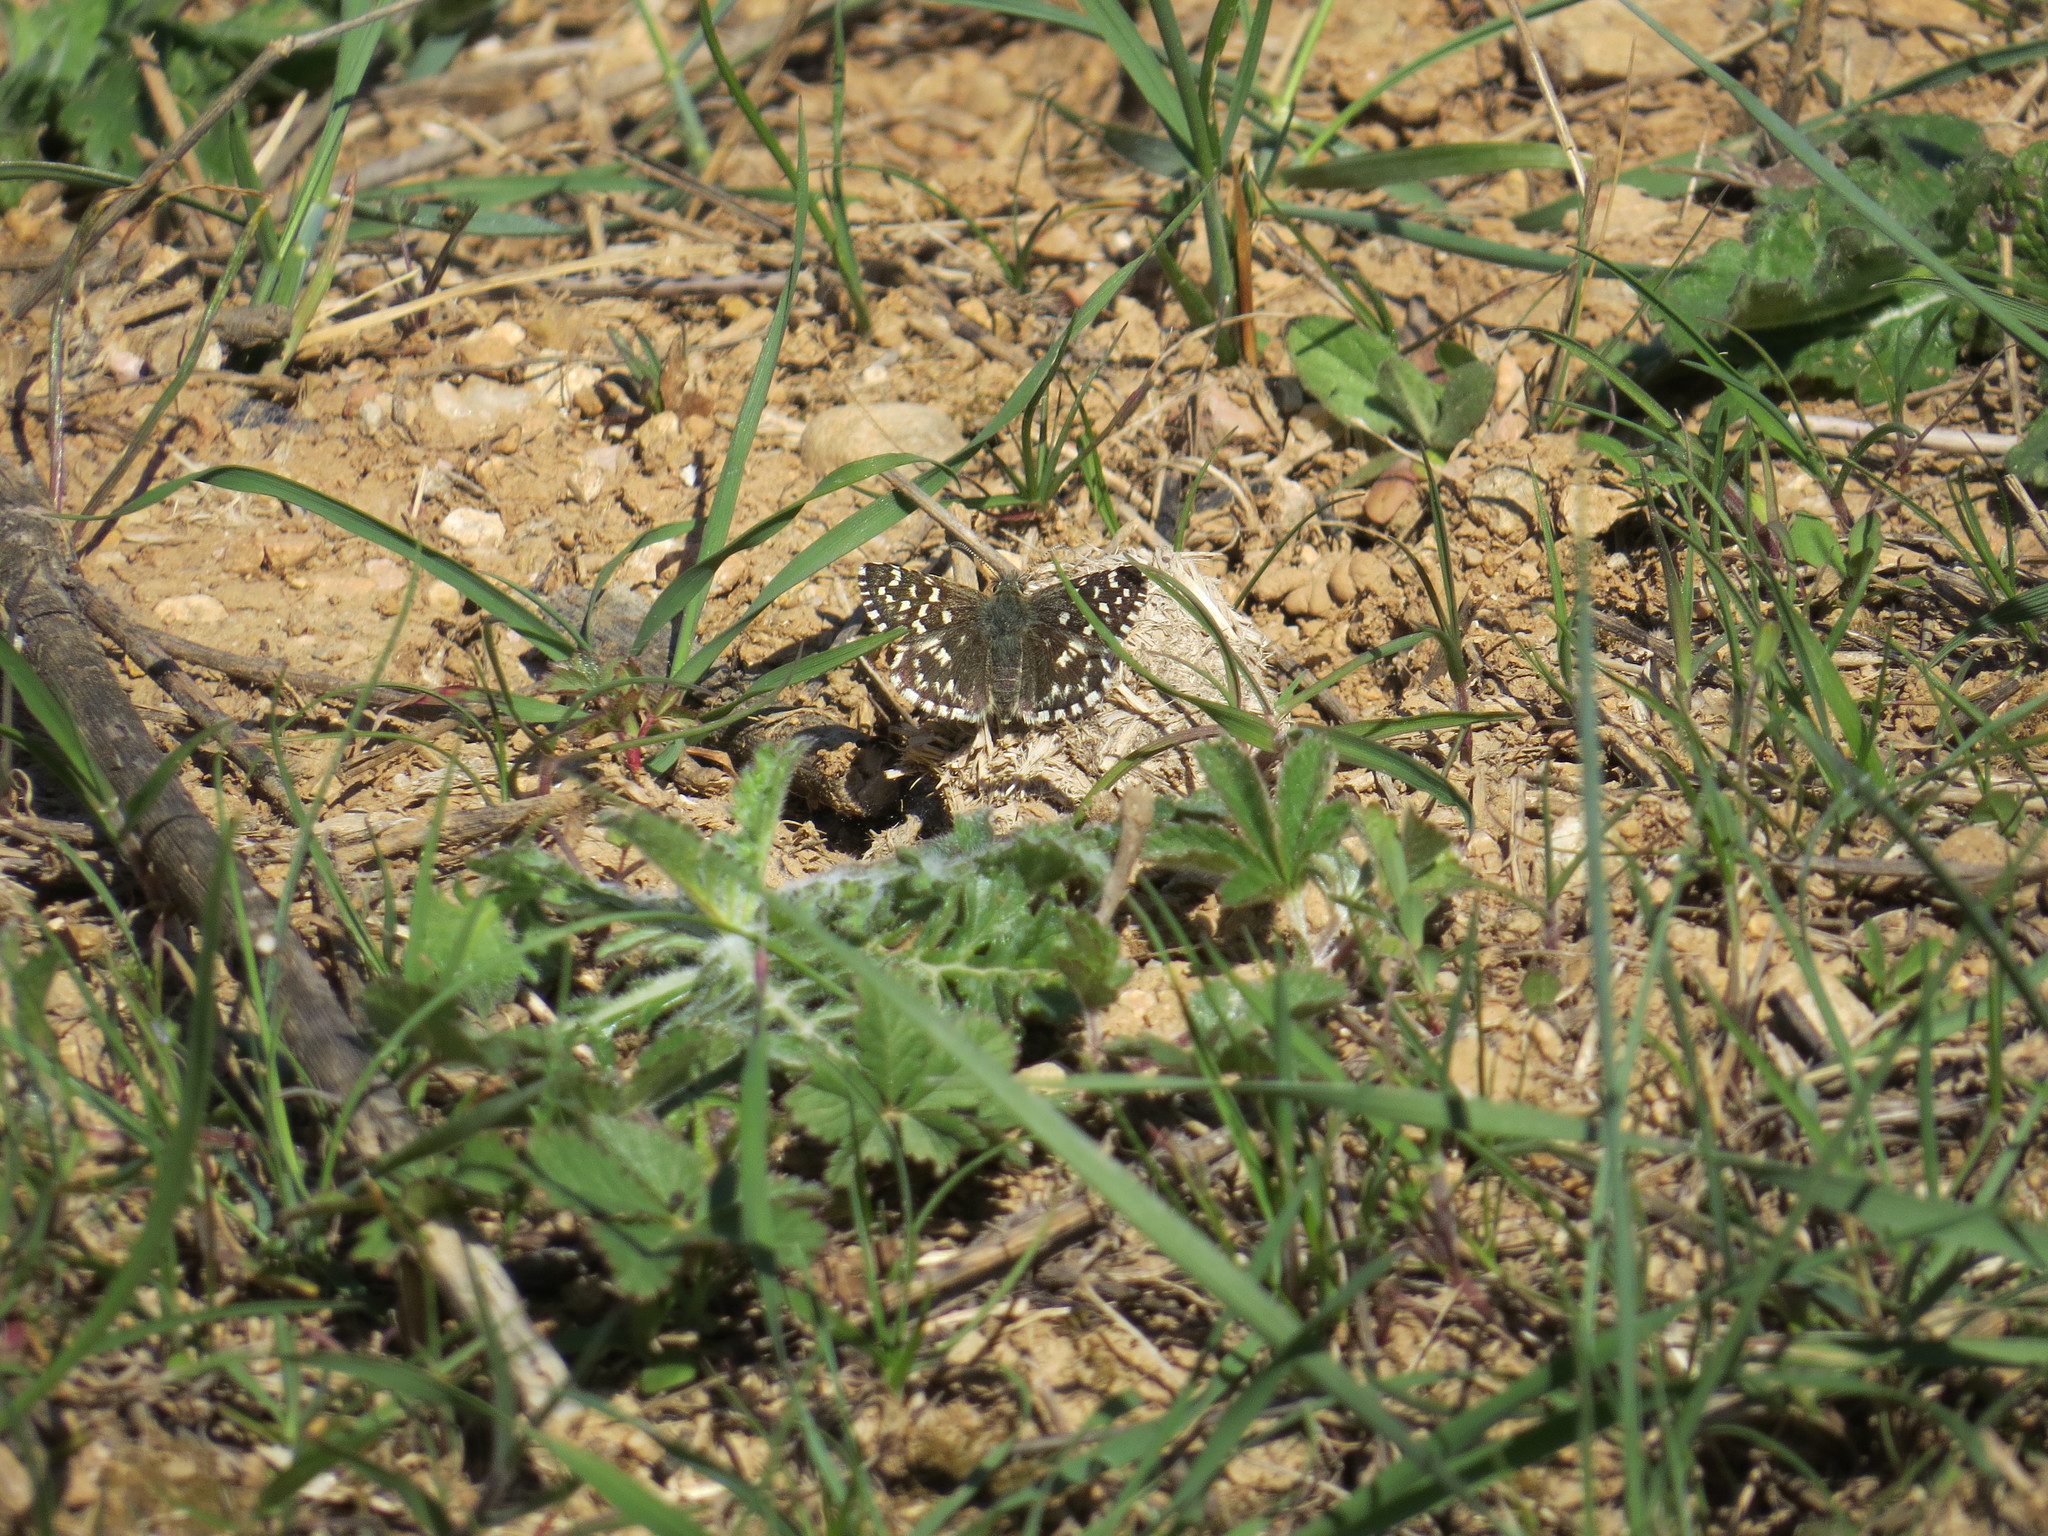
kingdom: Animalia
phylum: Arthropoda
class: Insecta
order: Lepidoptera
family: Hesperiidae
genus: Pyrgus
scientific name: Pyrgus malvoides
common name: Southern grizzled skipper
